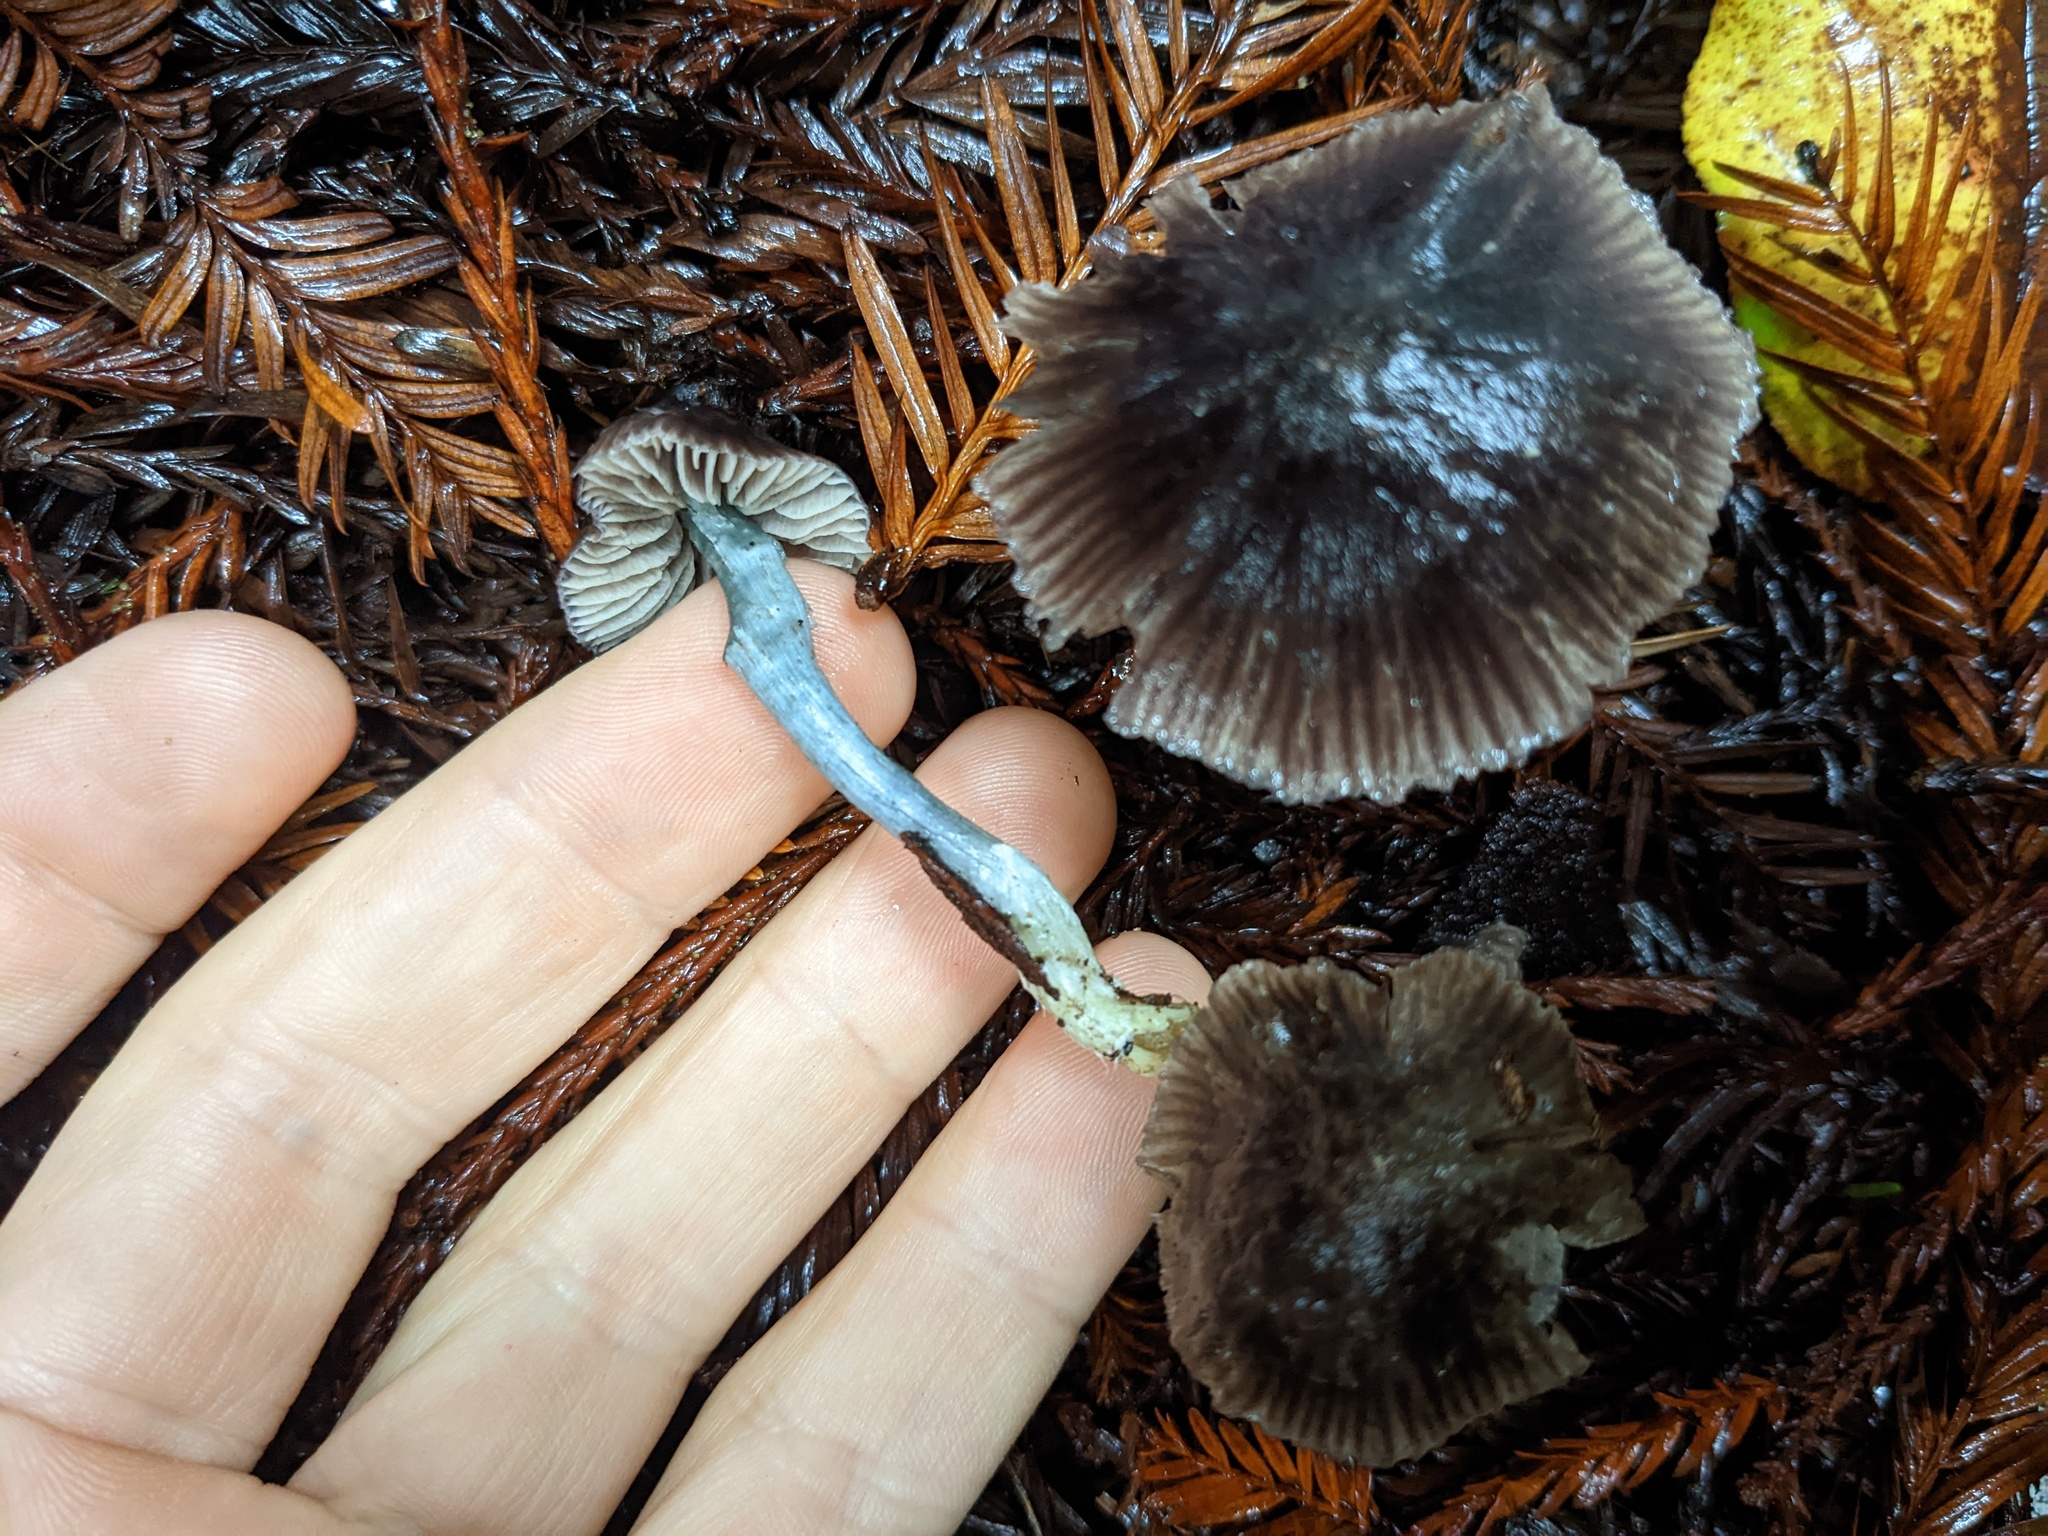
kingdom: Fungi
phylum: Basidiomycota
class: Agaricomycetes
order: Agaricales
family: Entolomataceae
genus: Entocybe
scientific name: Entocybe trachyospora
